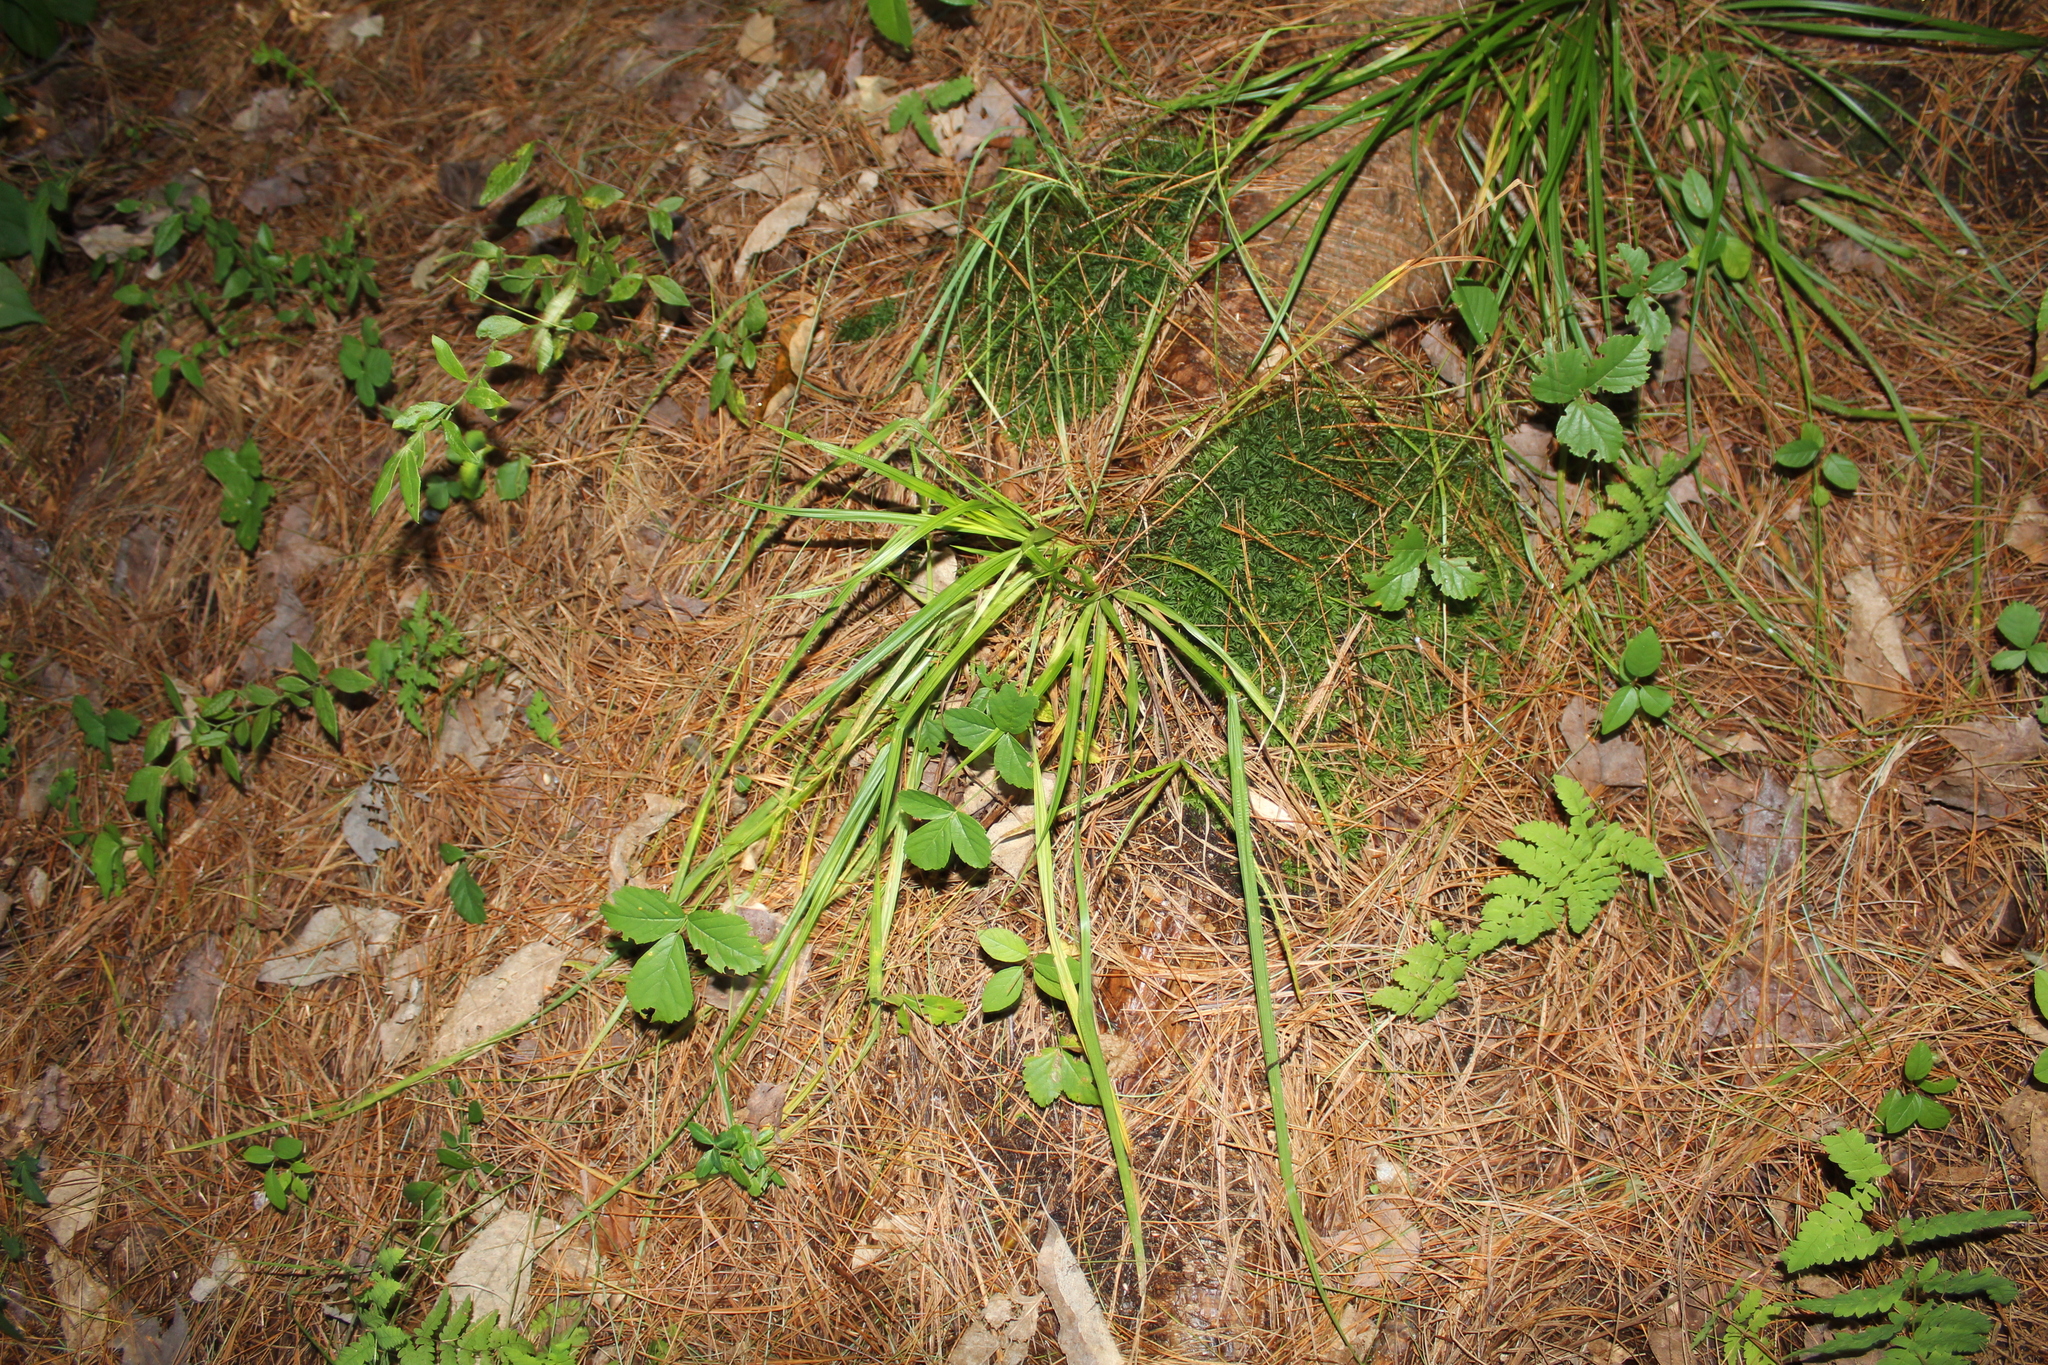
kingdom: Plantae
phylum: Tracheophyta
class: Liliopsida
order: Poales
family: Cyperaceae
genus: Carex
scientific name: Carex
